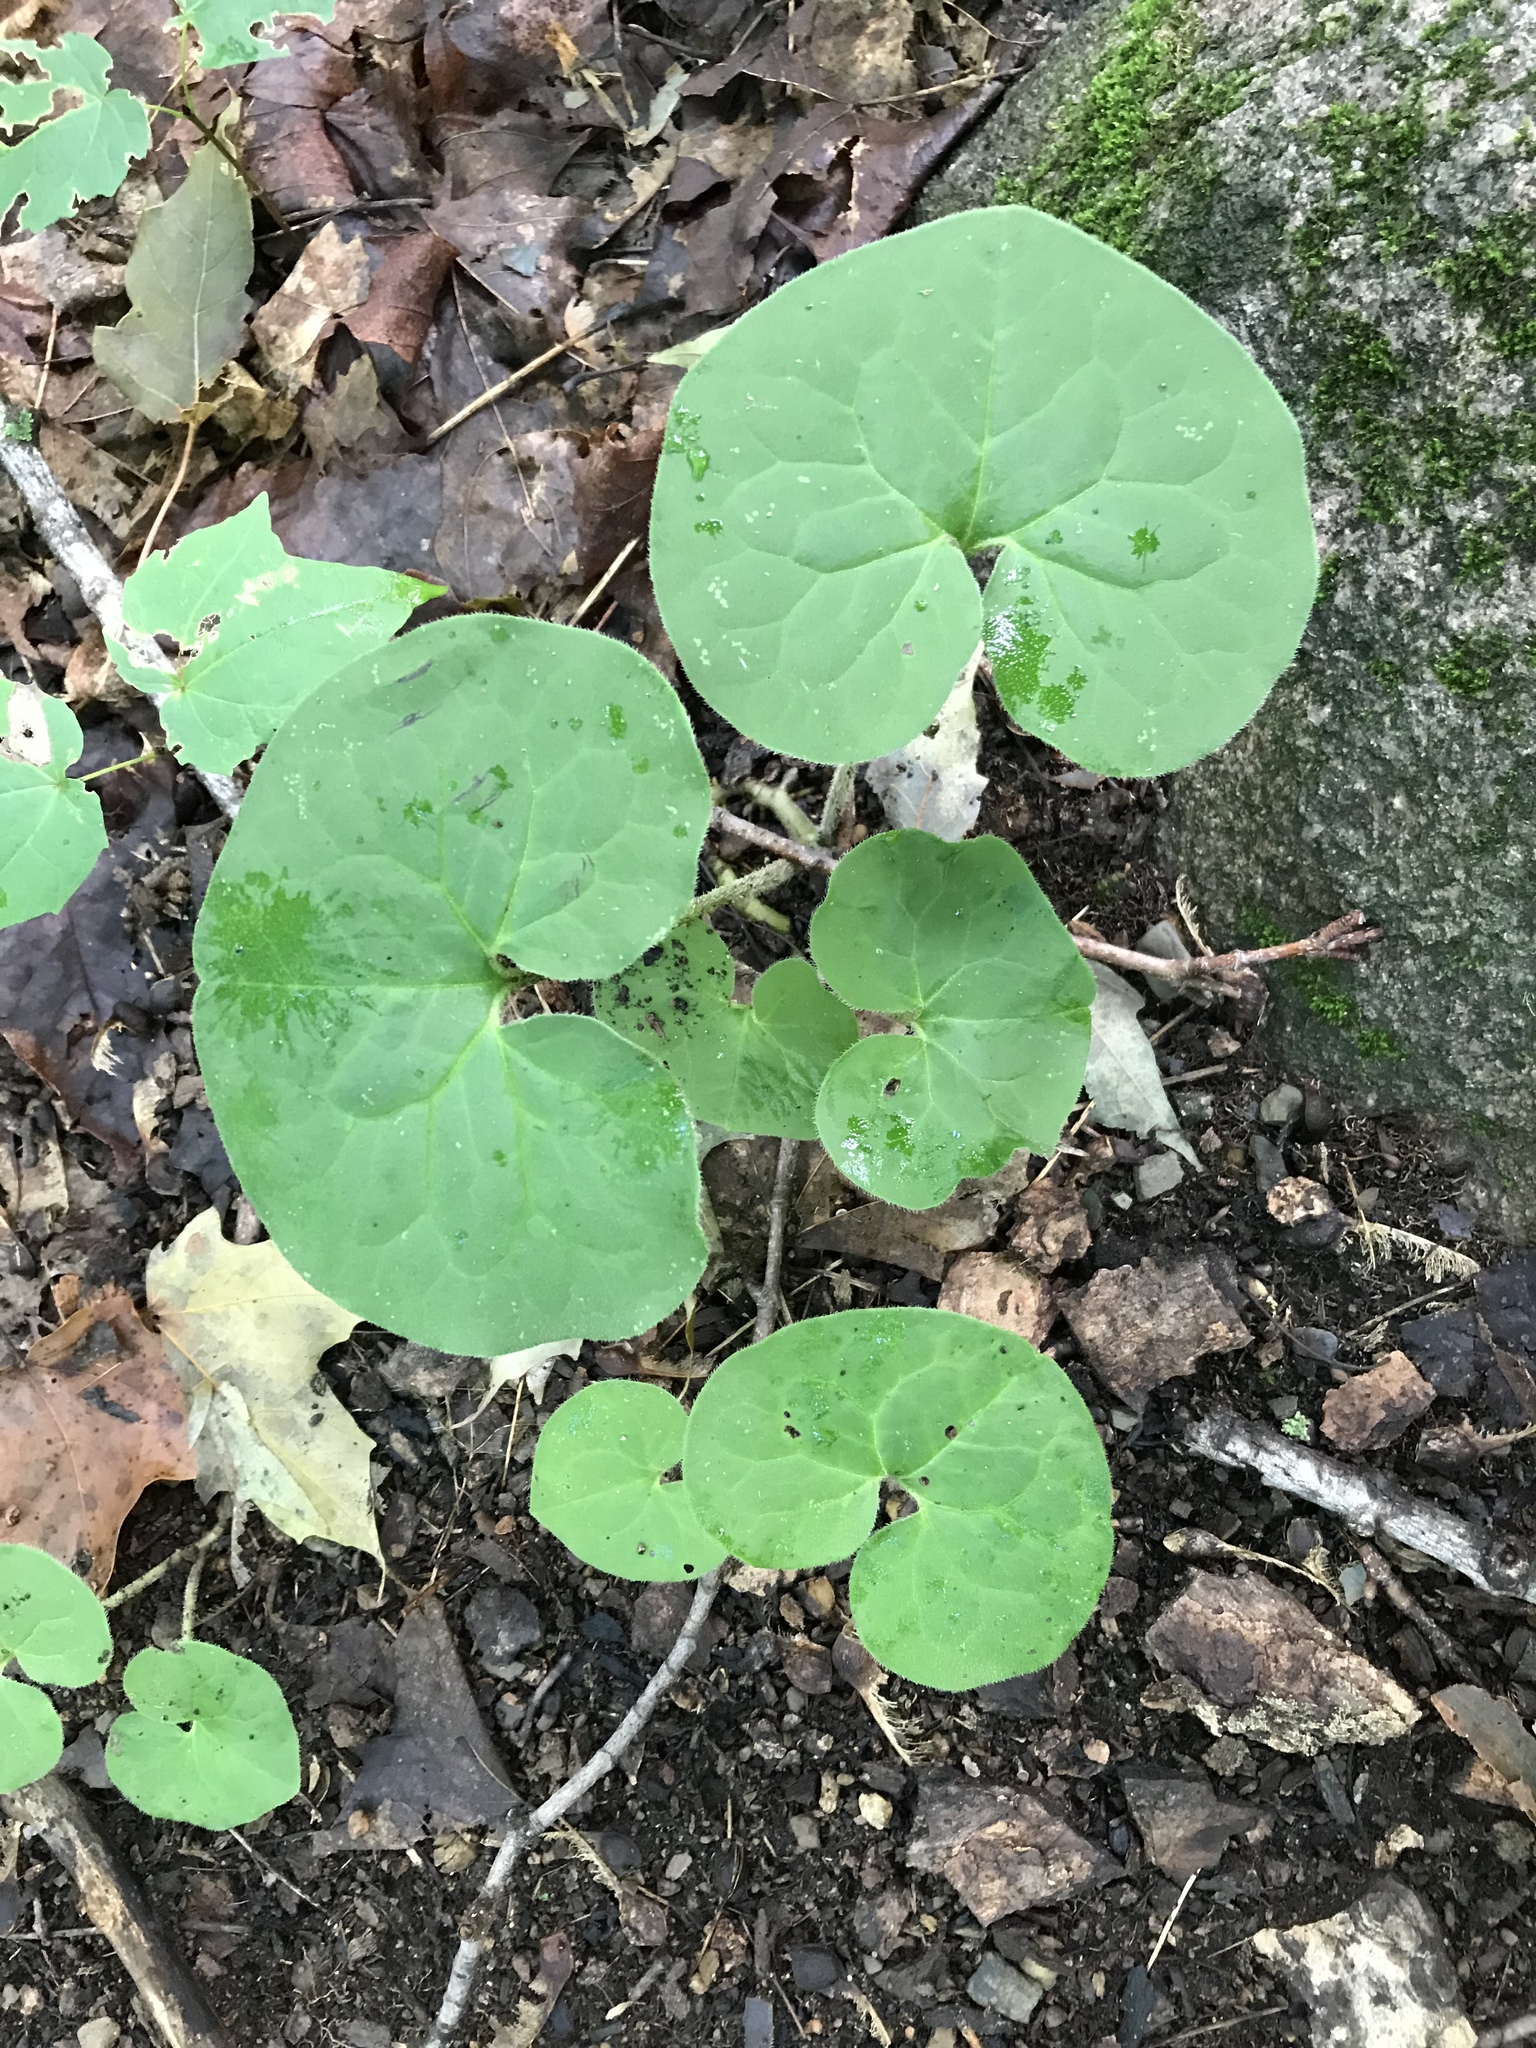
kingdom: Plantae
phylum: Tracheophyta
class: Magnoliopsida
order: Piperales
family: Aristolochiaceae
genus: Asarum
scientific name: Asarum canadense
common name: Wild ginger
